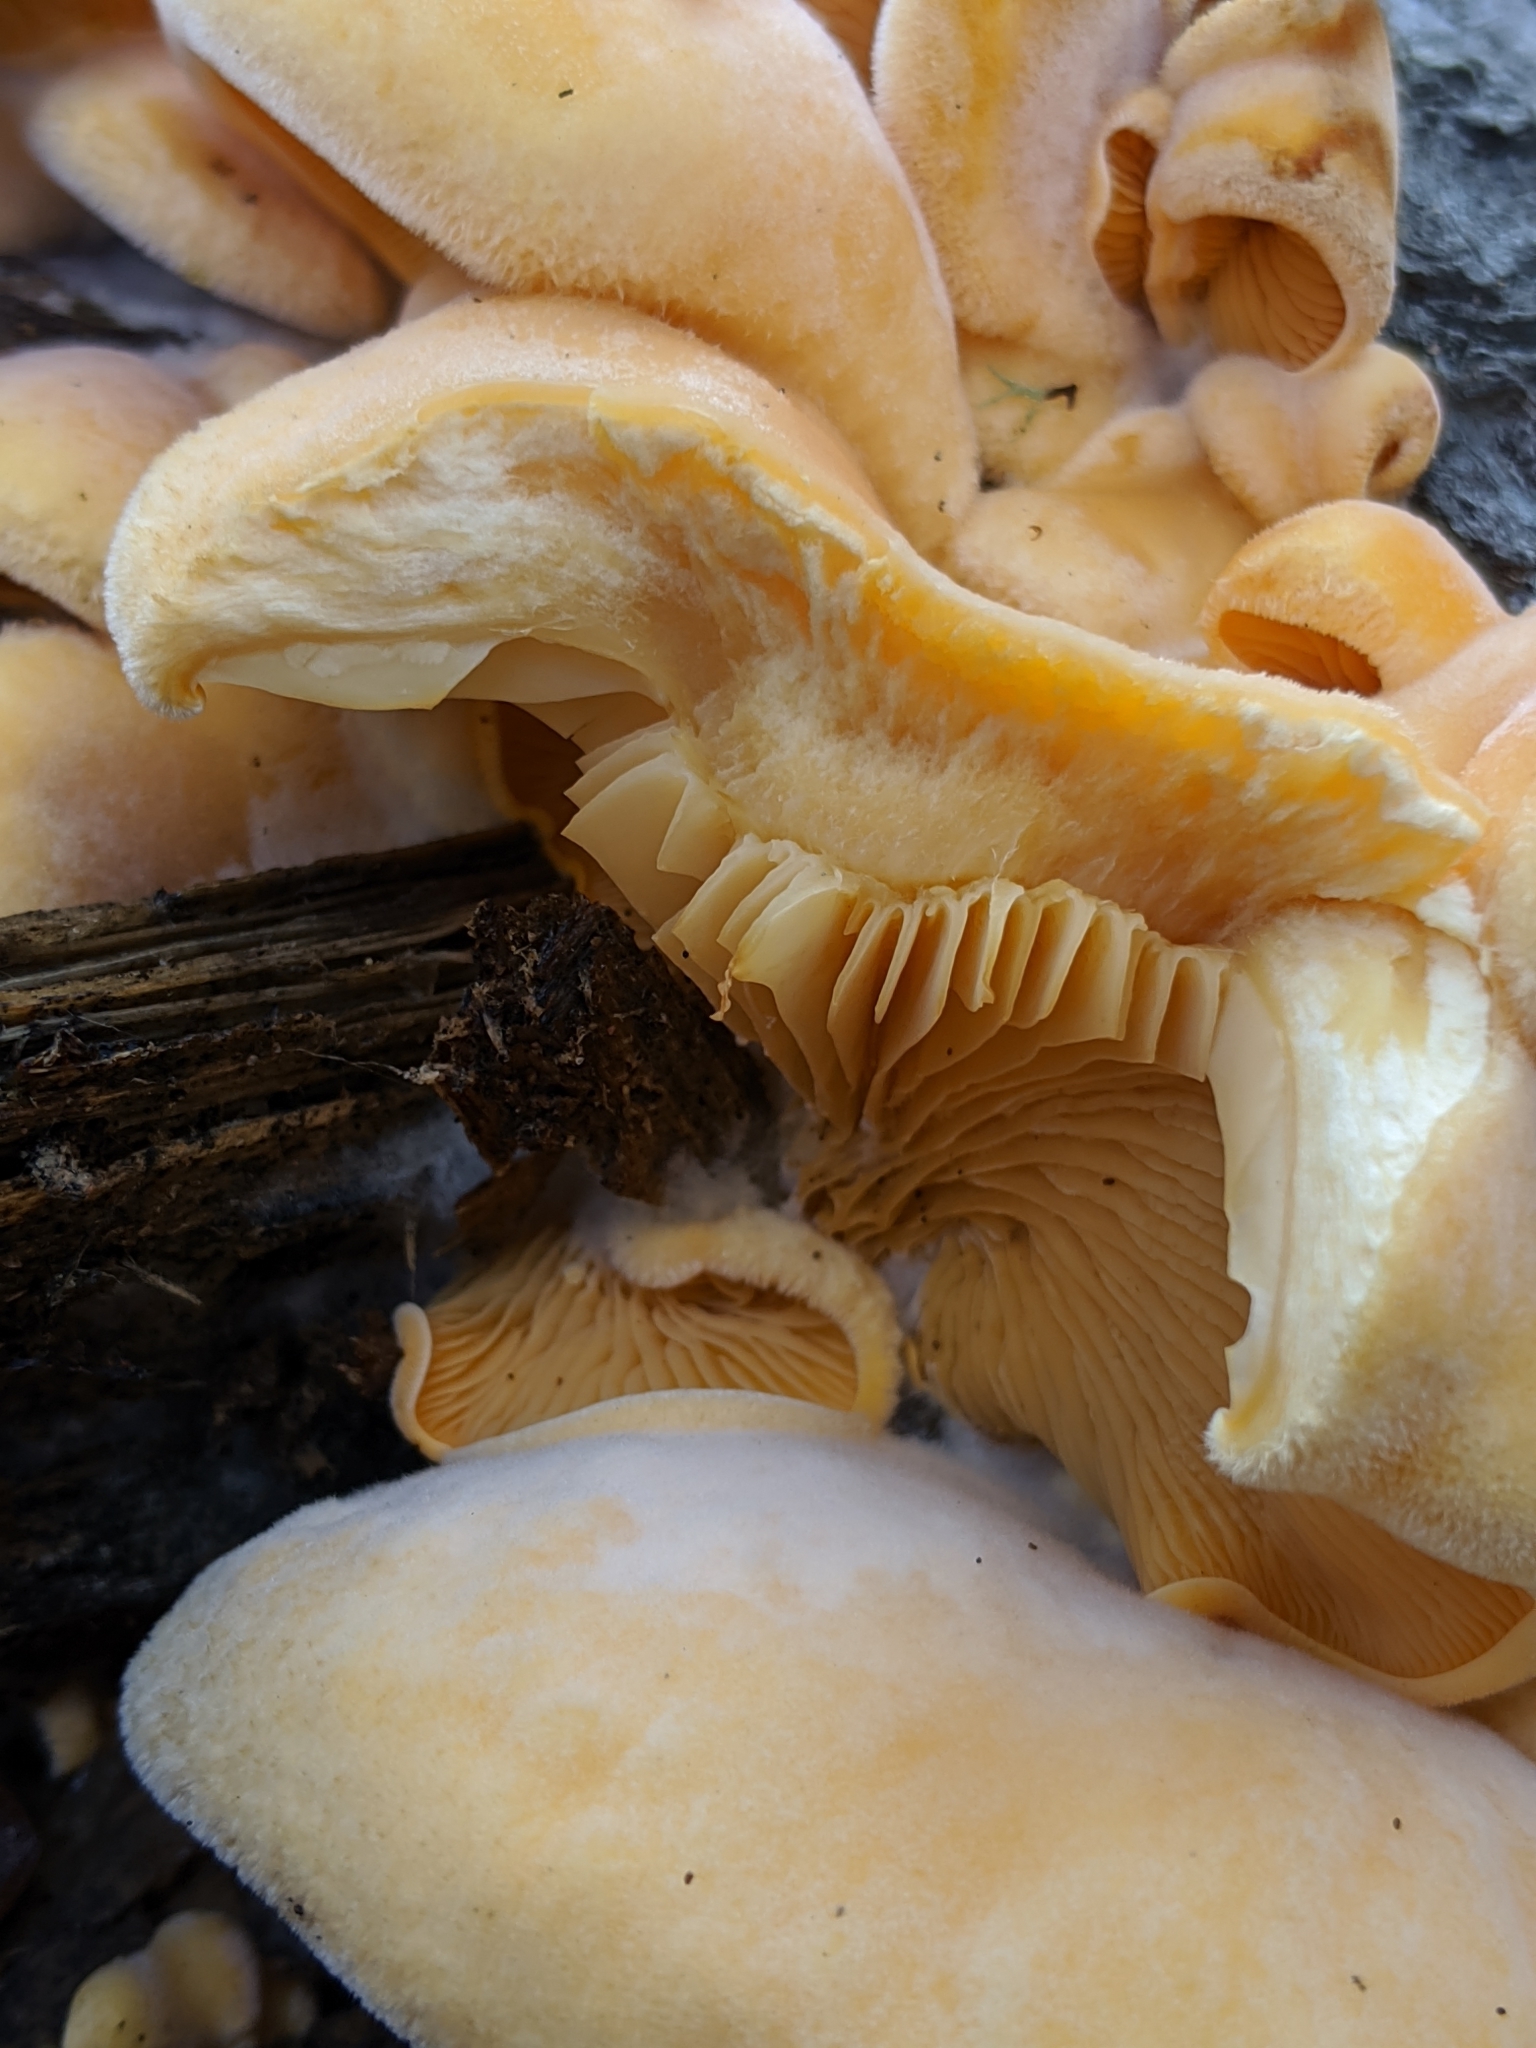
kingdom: Fungi
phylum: Basidiomycota
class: Agaricomycetes
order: Agaricales
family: Phyllotopsidaceae
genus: Phyllotopsis
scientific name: Phyllotopsis nidulans
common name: Orange mock oyster
